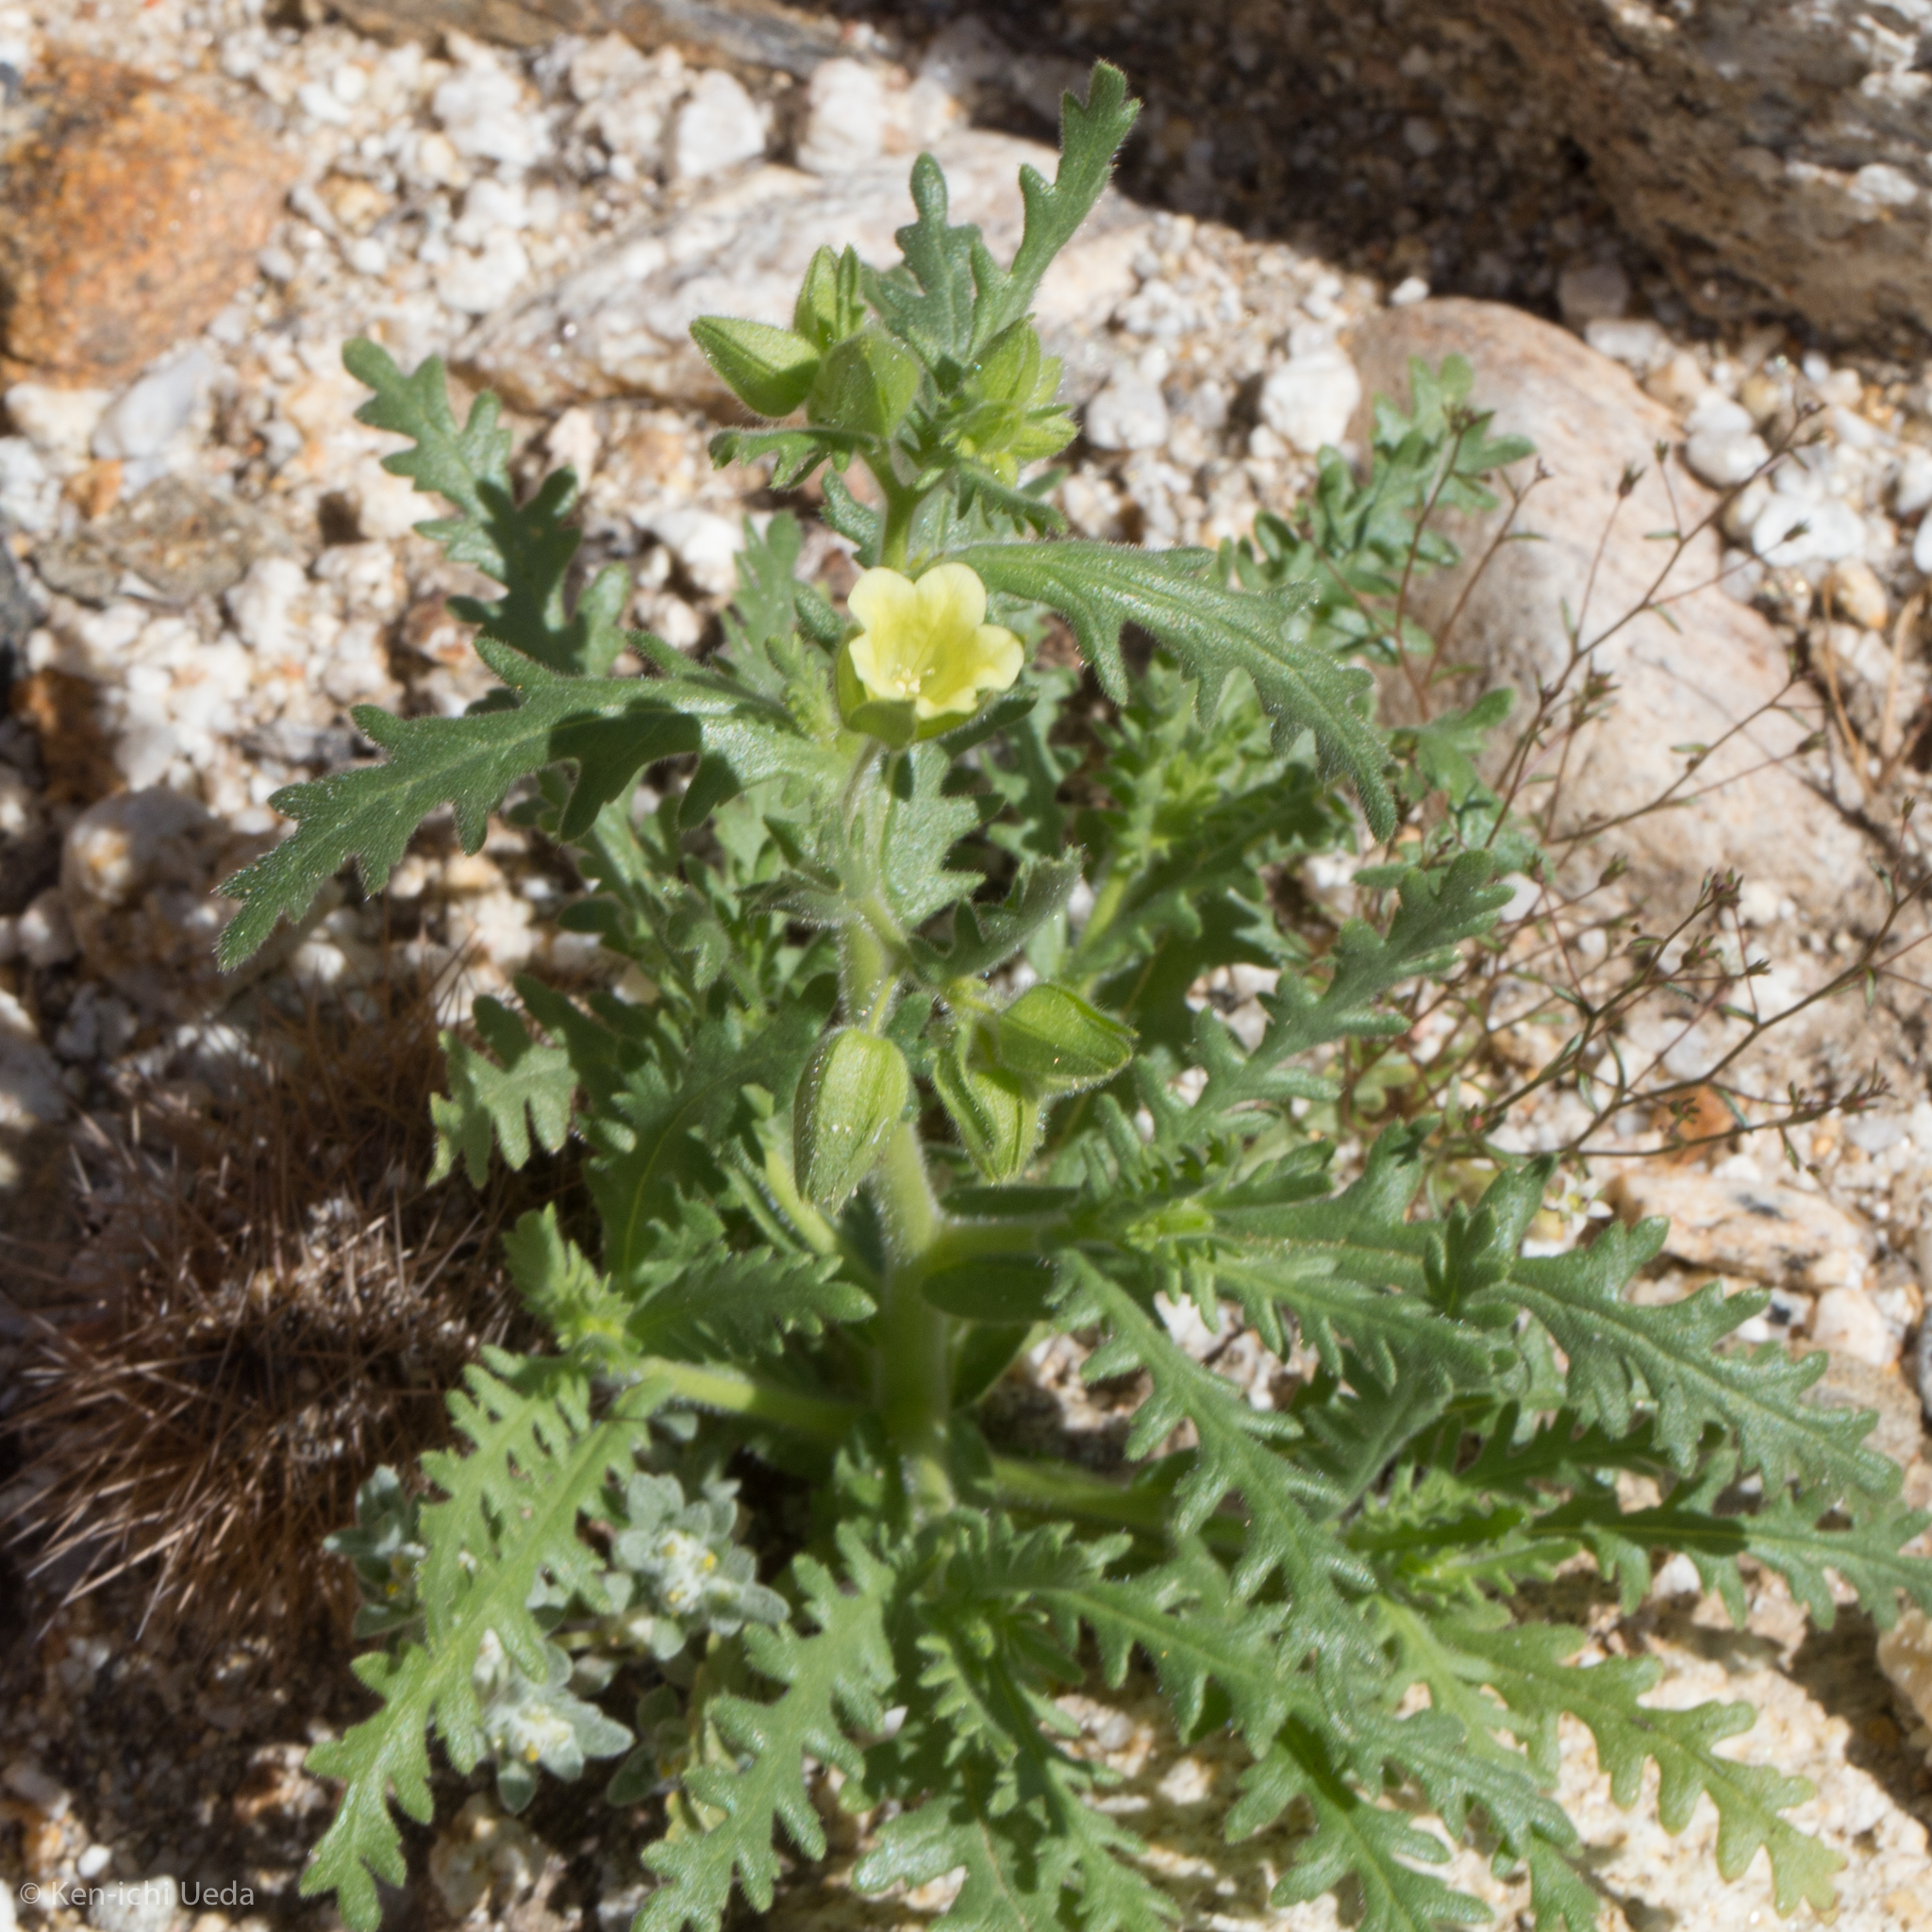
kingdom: Plantae
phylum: Tracheophyta
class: Magnoliopsida
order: Boraginales
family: Hydrophyllaceae
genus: Emmenanthe
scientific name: Emmenanthe penduliflora
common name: Whispering-bells
